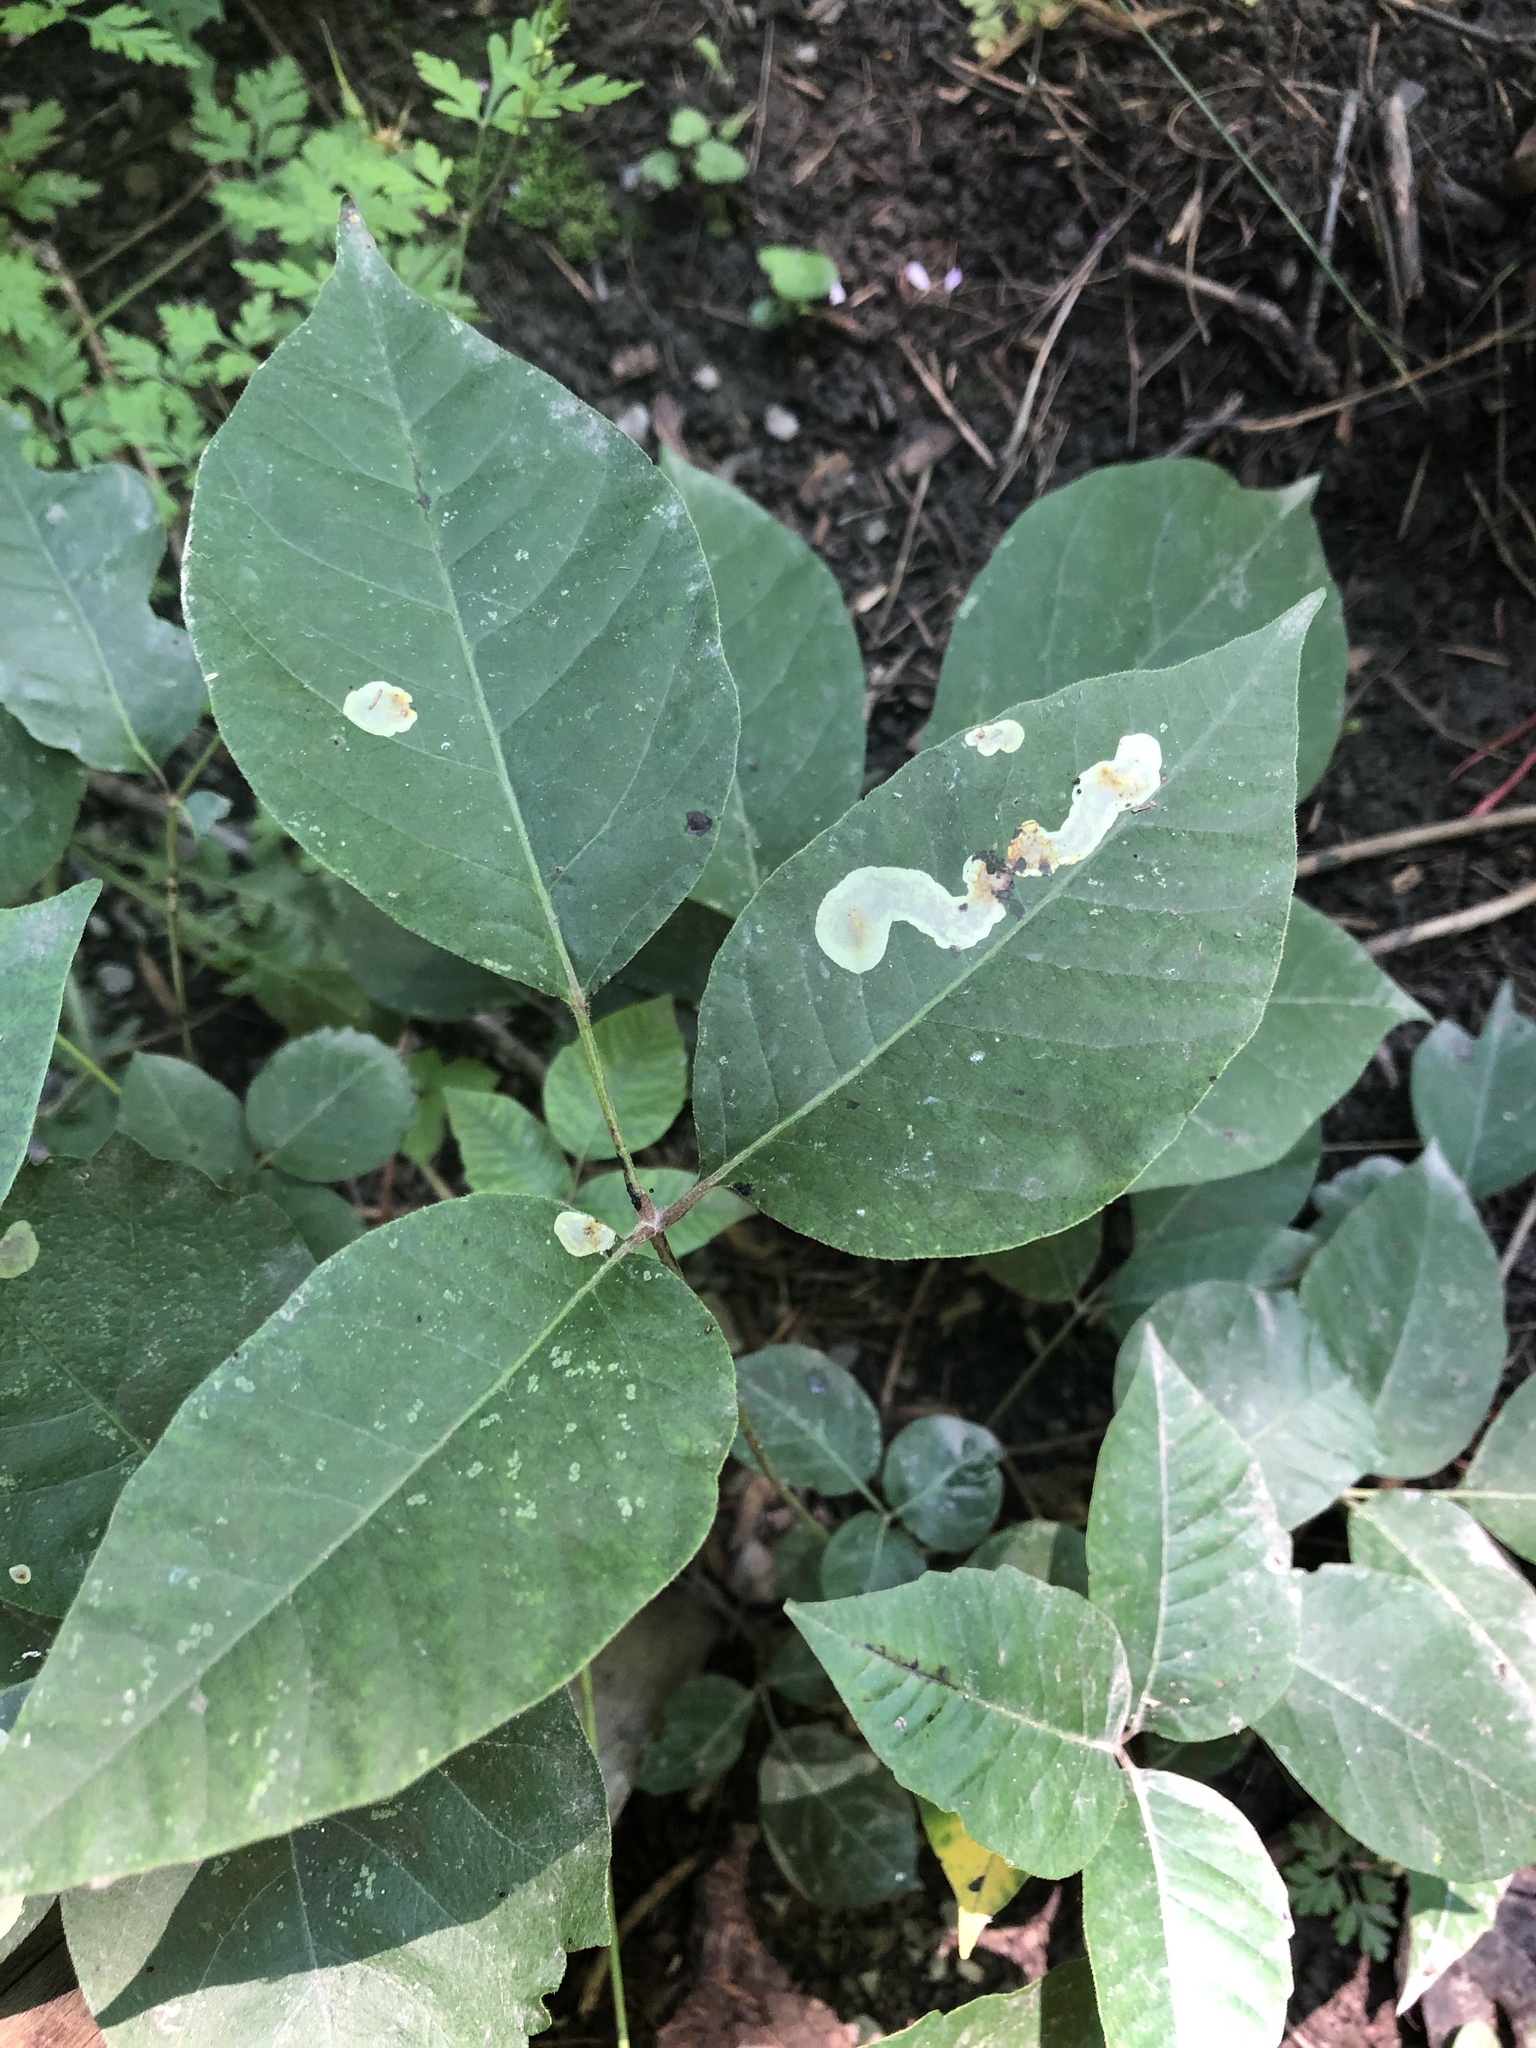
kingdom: Animalia
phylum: Arthropoda
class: Insecta
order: Lepidoptera
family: Gracillariidae
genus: Cameraria
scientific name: Cameraria guttifinitella
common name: Poison ivy leaf-miner moth
